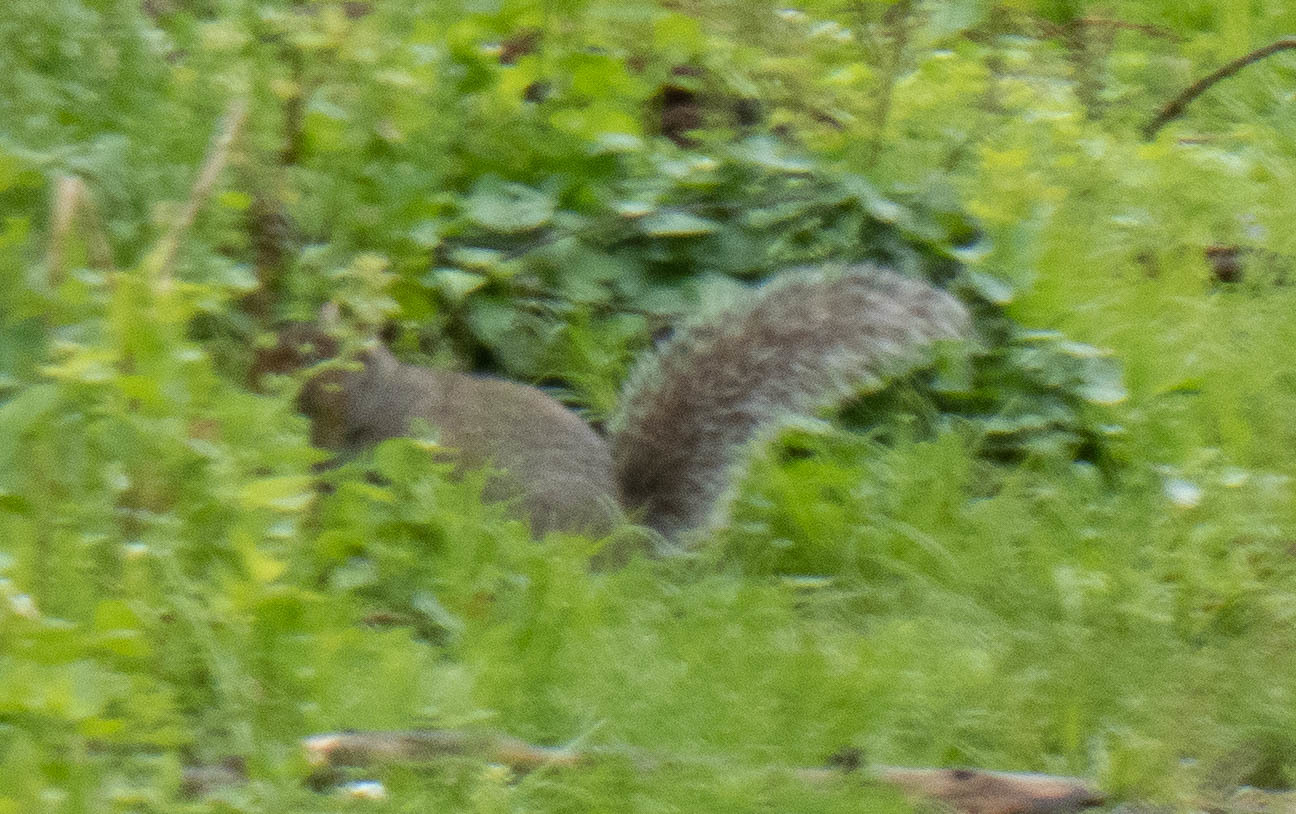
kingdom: Animalia
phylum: Chordata
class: Mammalia
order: Rodentia
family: Sciuridae
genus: Sciurus
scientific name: Sciurus carolinensis
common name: Eastern gray squirrel
